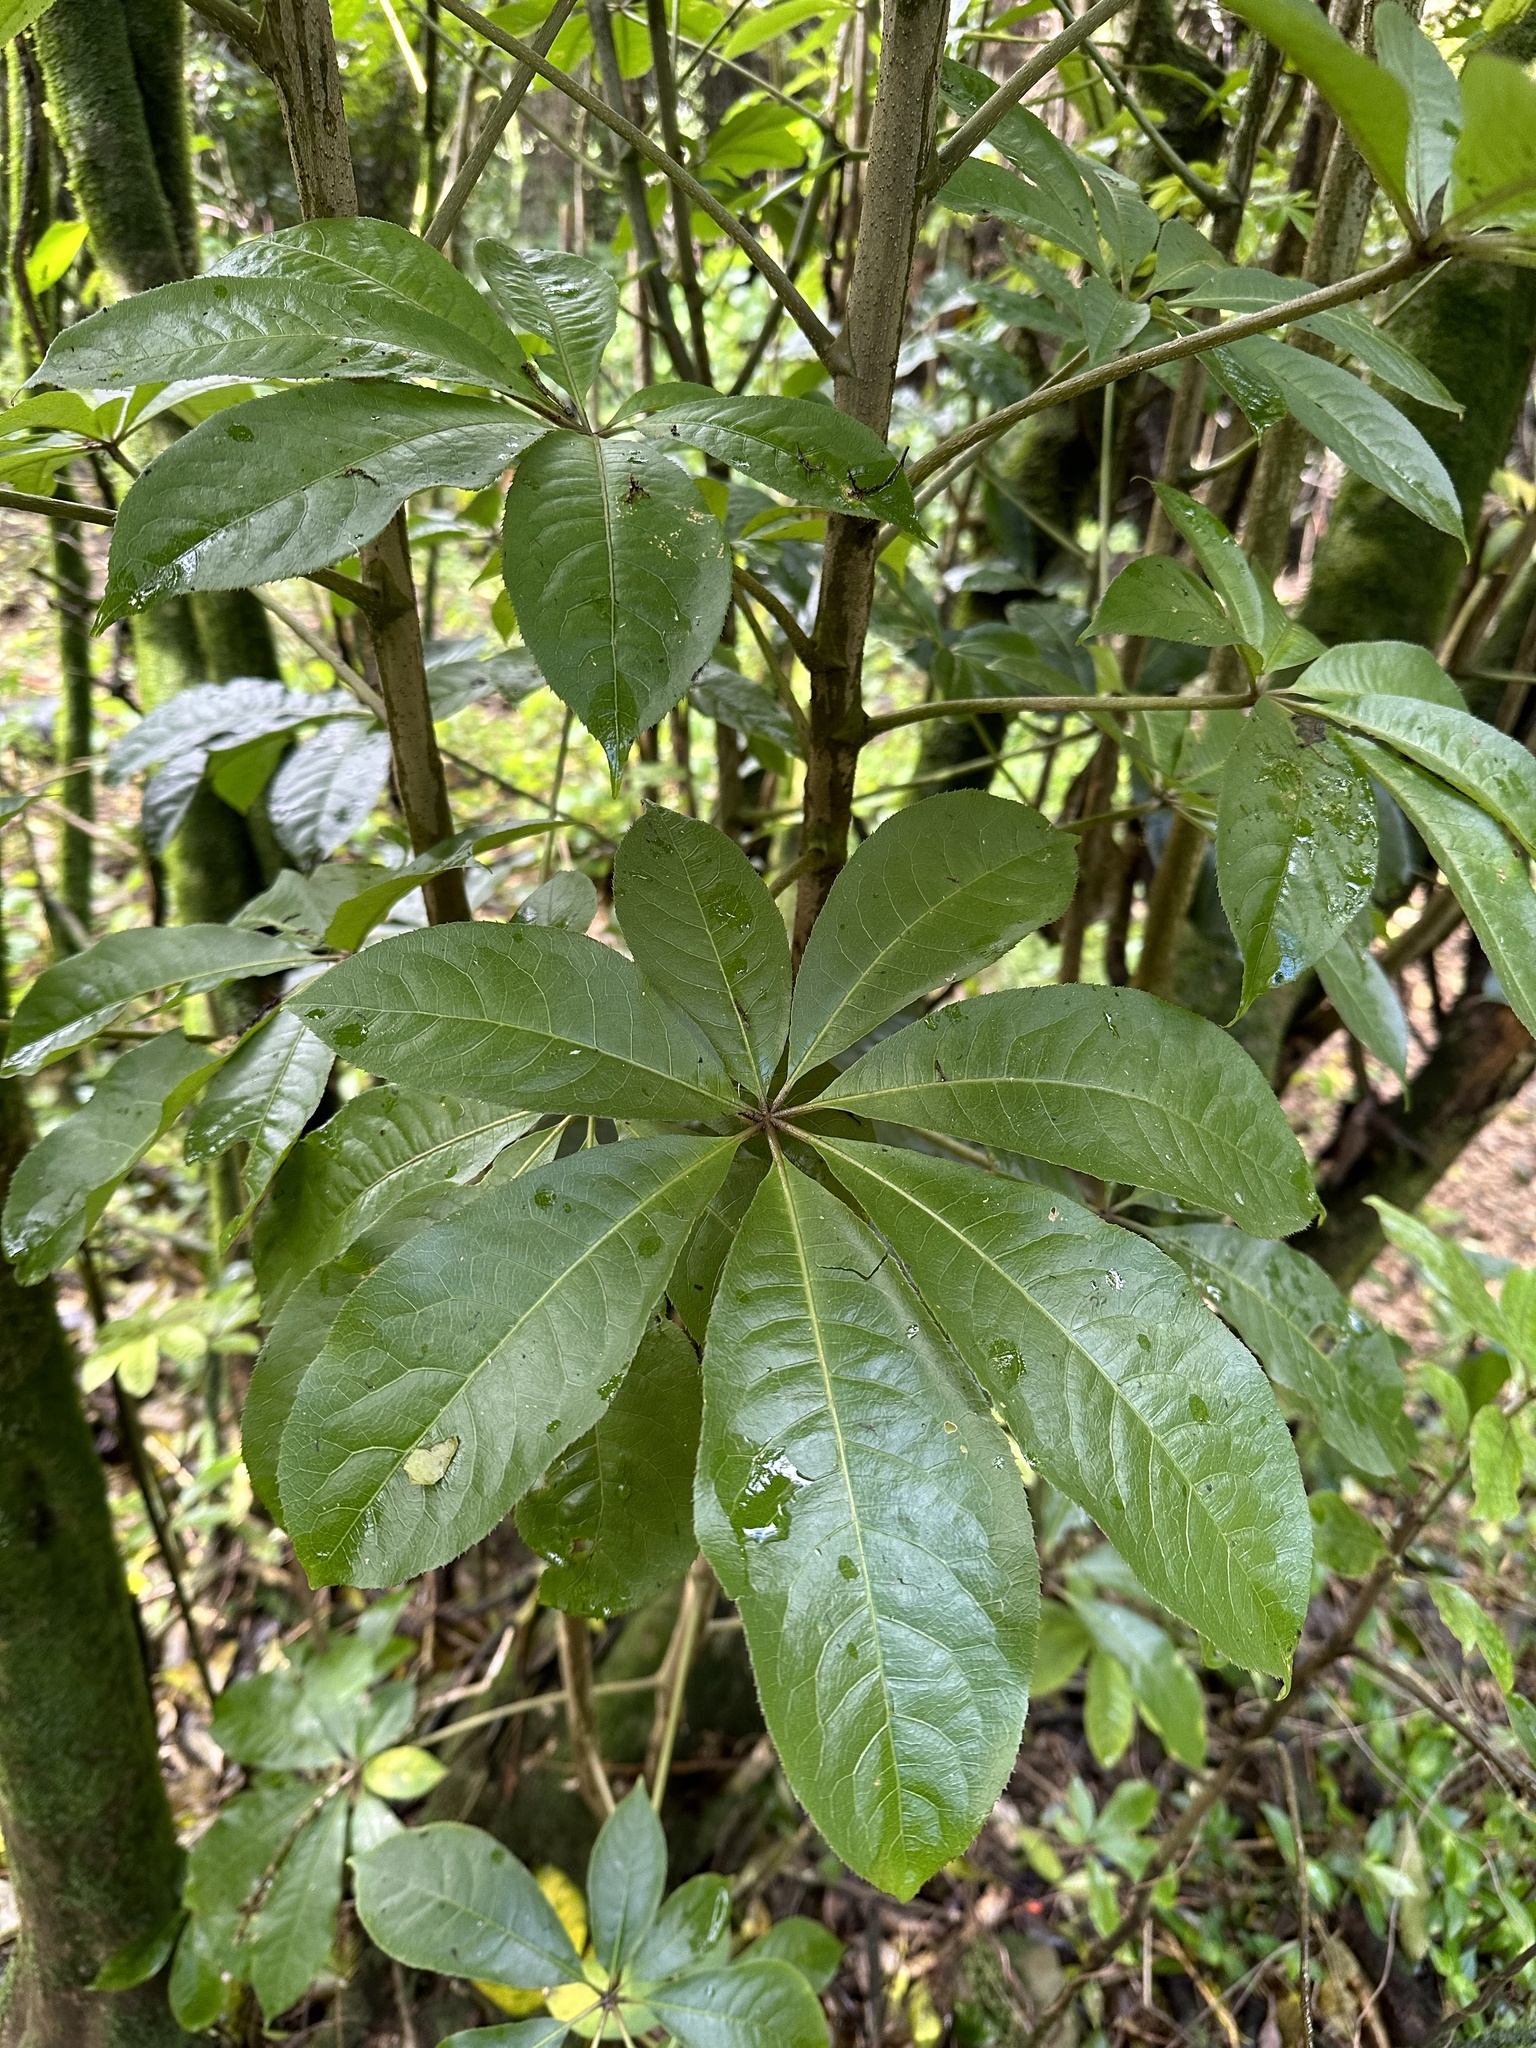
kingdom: Plantae
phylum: Tracheophyta
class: Magnoliopsida
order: Apiales
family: Araliaceae
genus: Schefflera
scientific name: Schefflera digitata
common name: Pate
